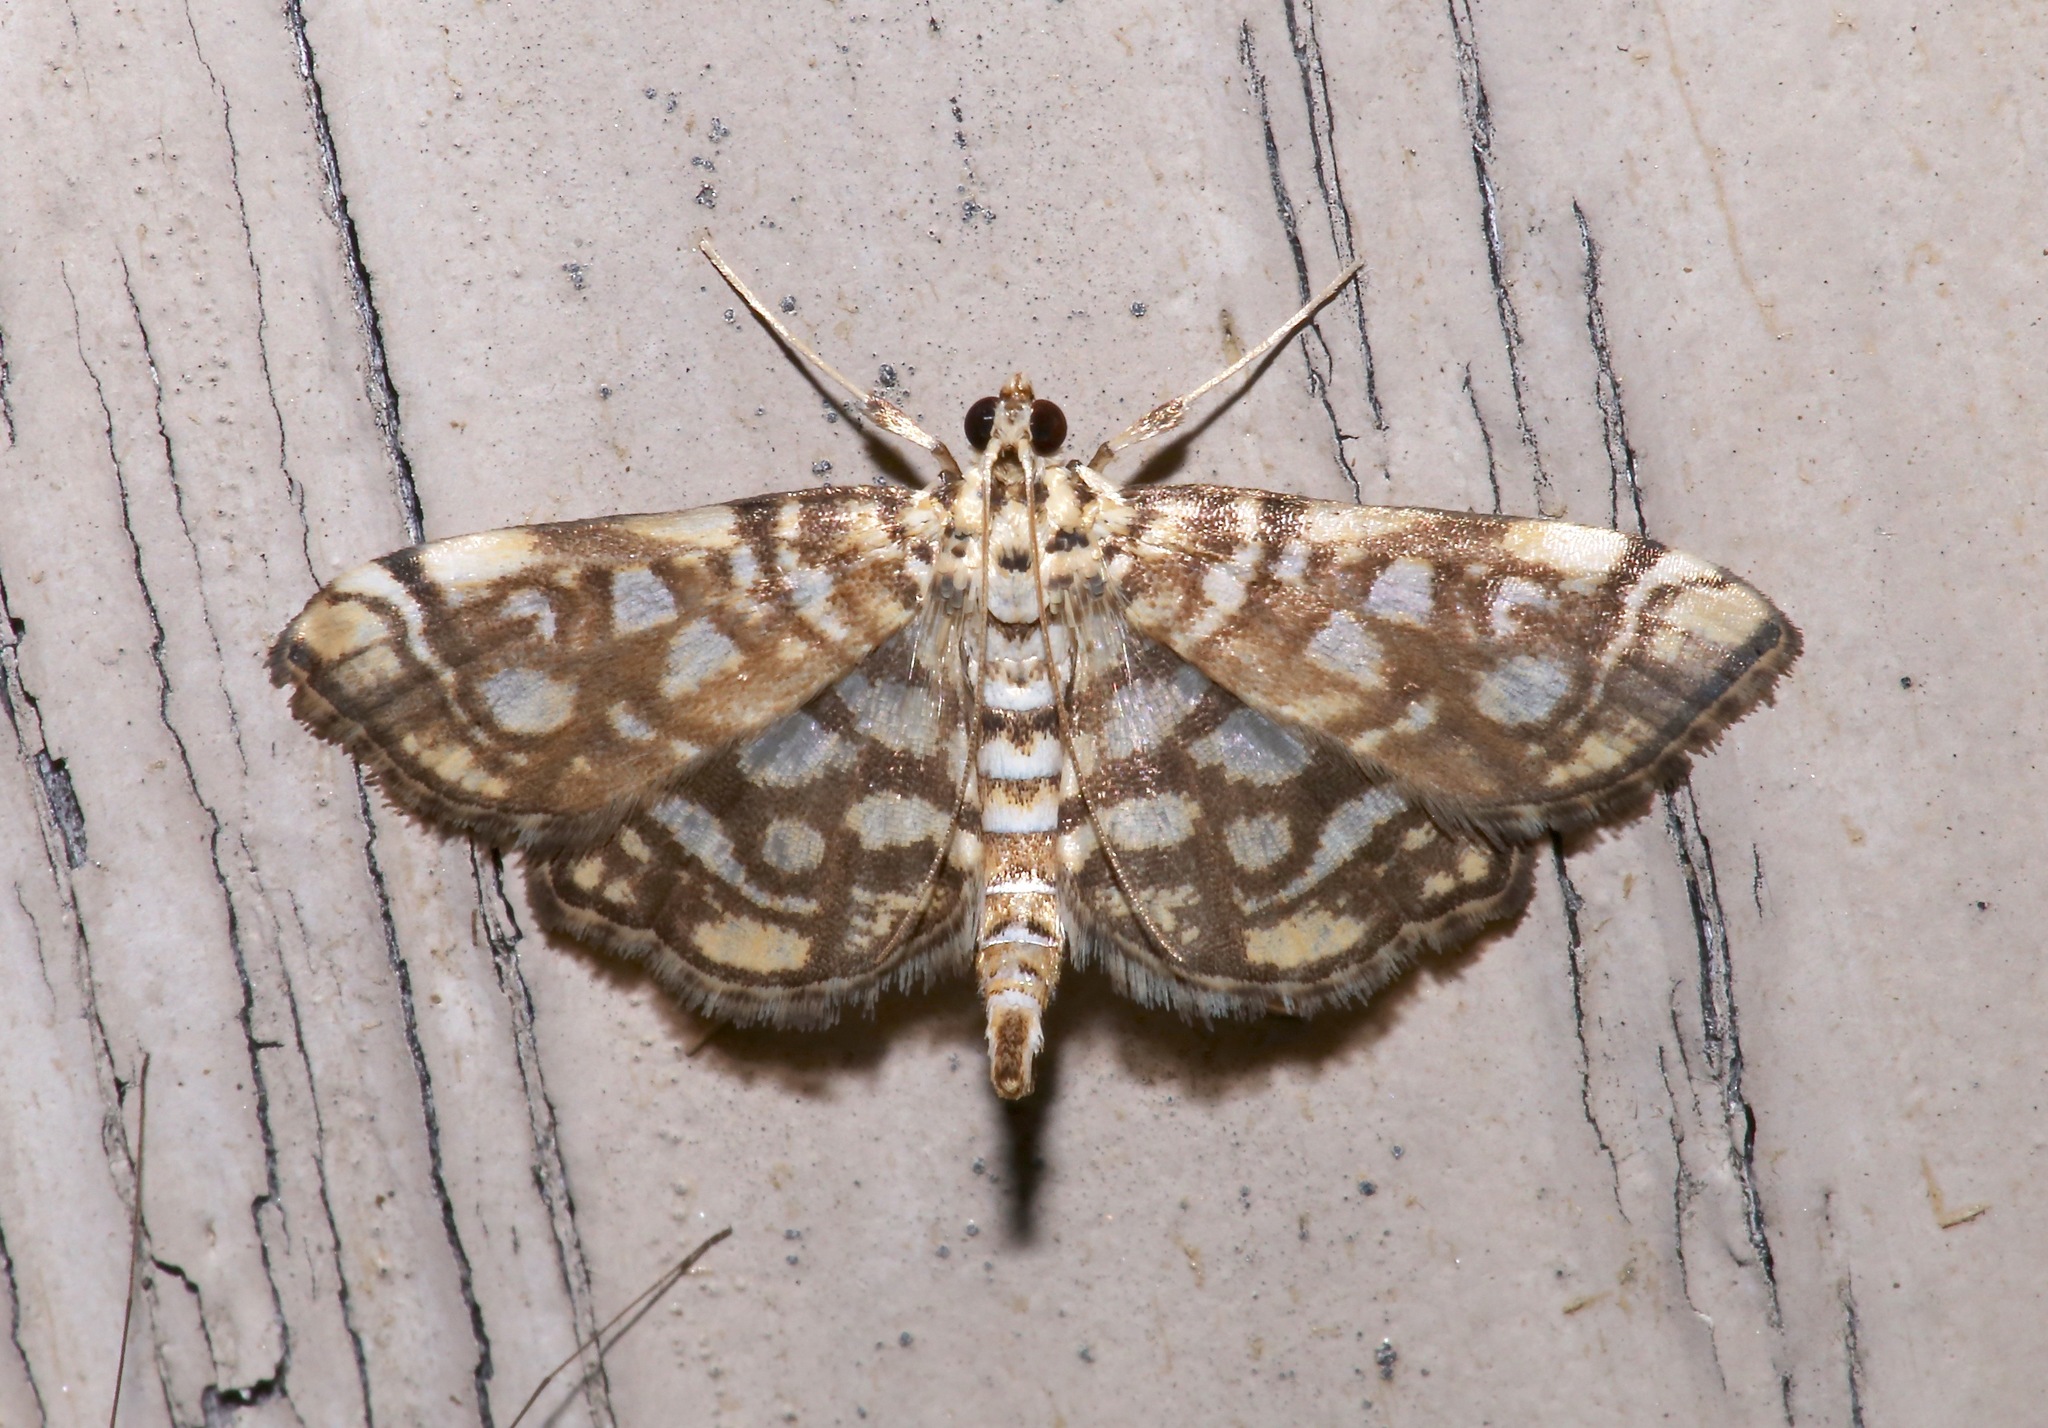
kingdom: Animalia
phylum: Arthropoda
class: Insecta
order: Lepidoptera
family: Crambidae
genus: Lygropia
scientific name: Lygropia rivulalis
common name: Bog lygropia moth
